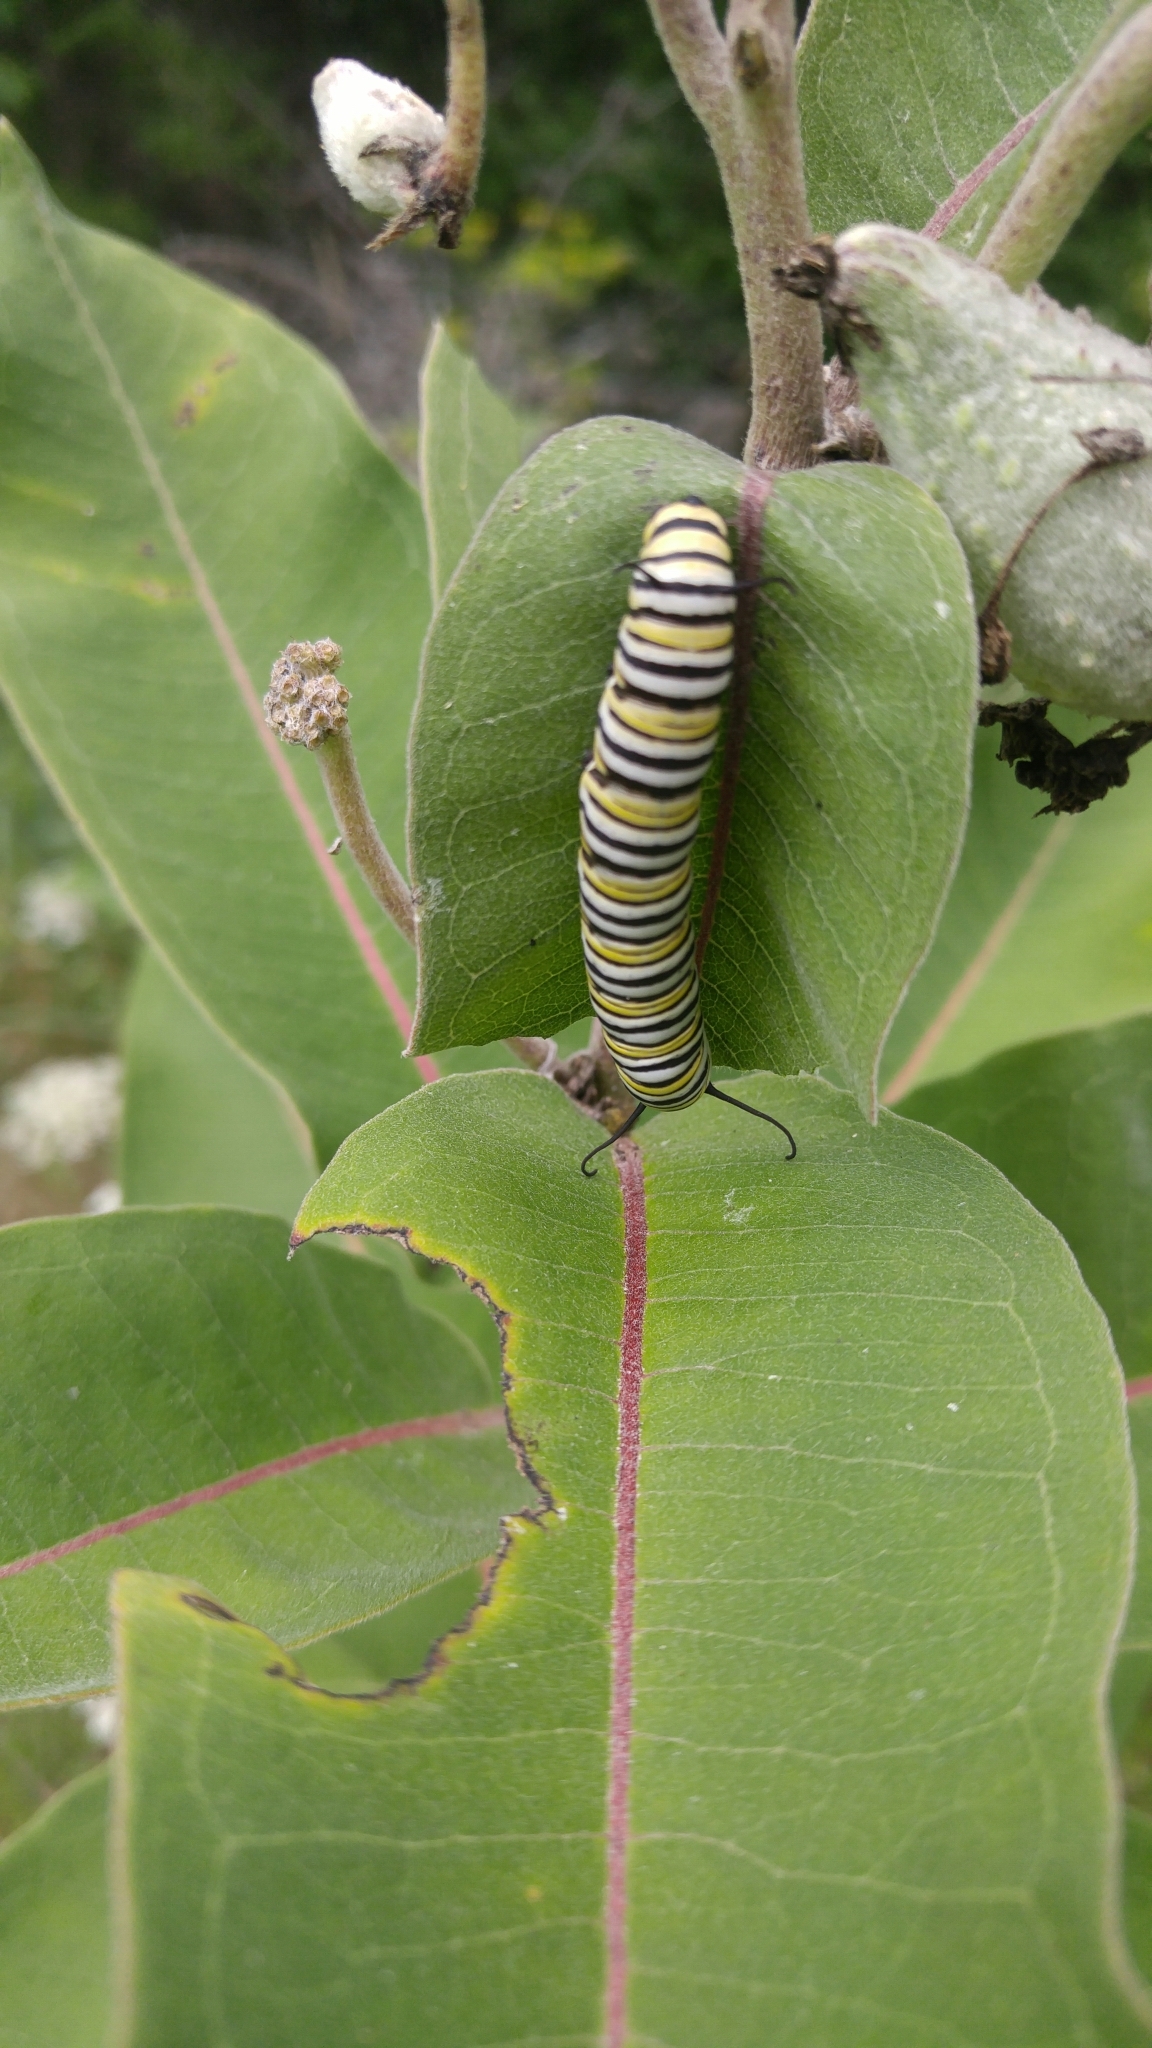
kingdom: Animalia
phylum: Arthropoda
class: Insecta
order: Lepidoptera
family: Nymphalidae
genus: Danaus
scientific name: Danaus plexippus
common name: Monarch
